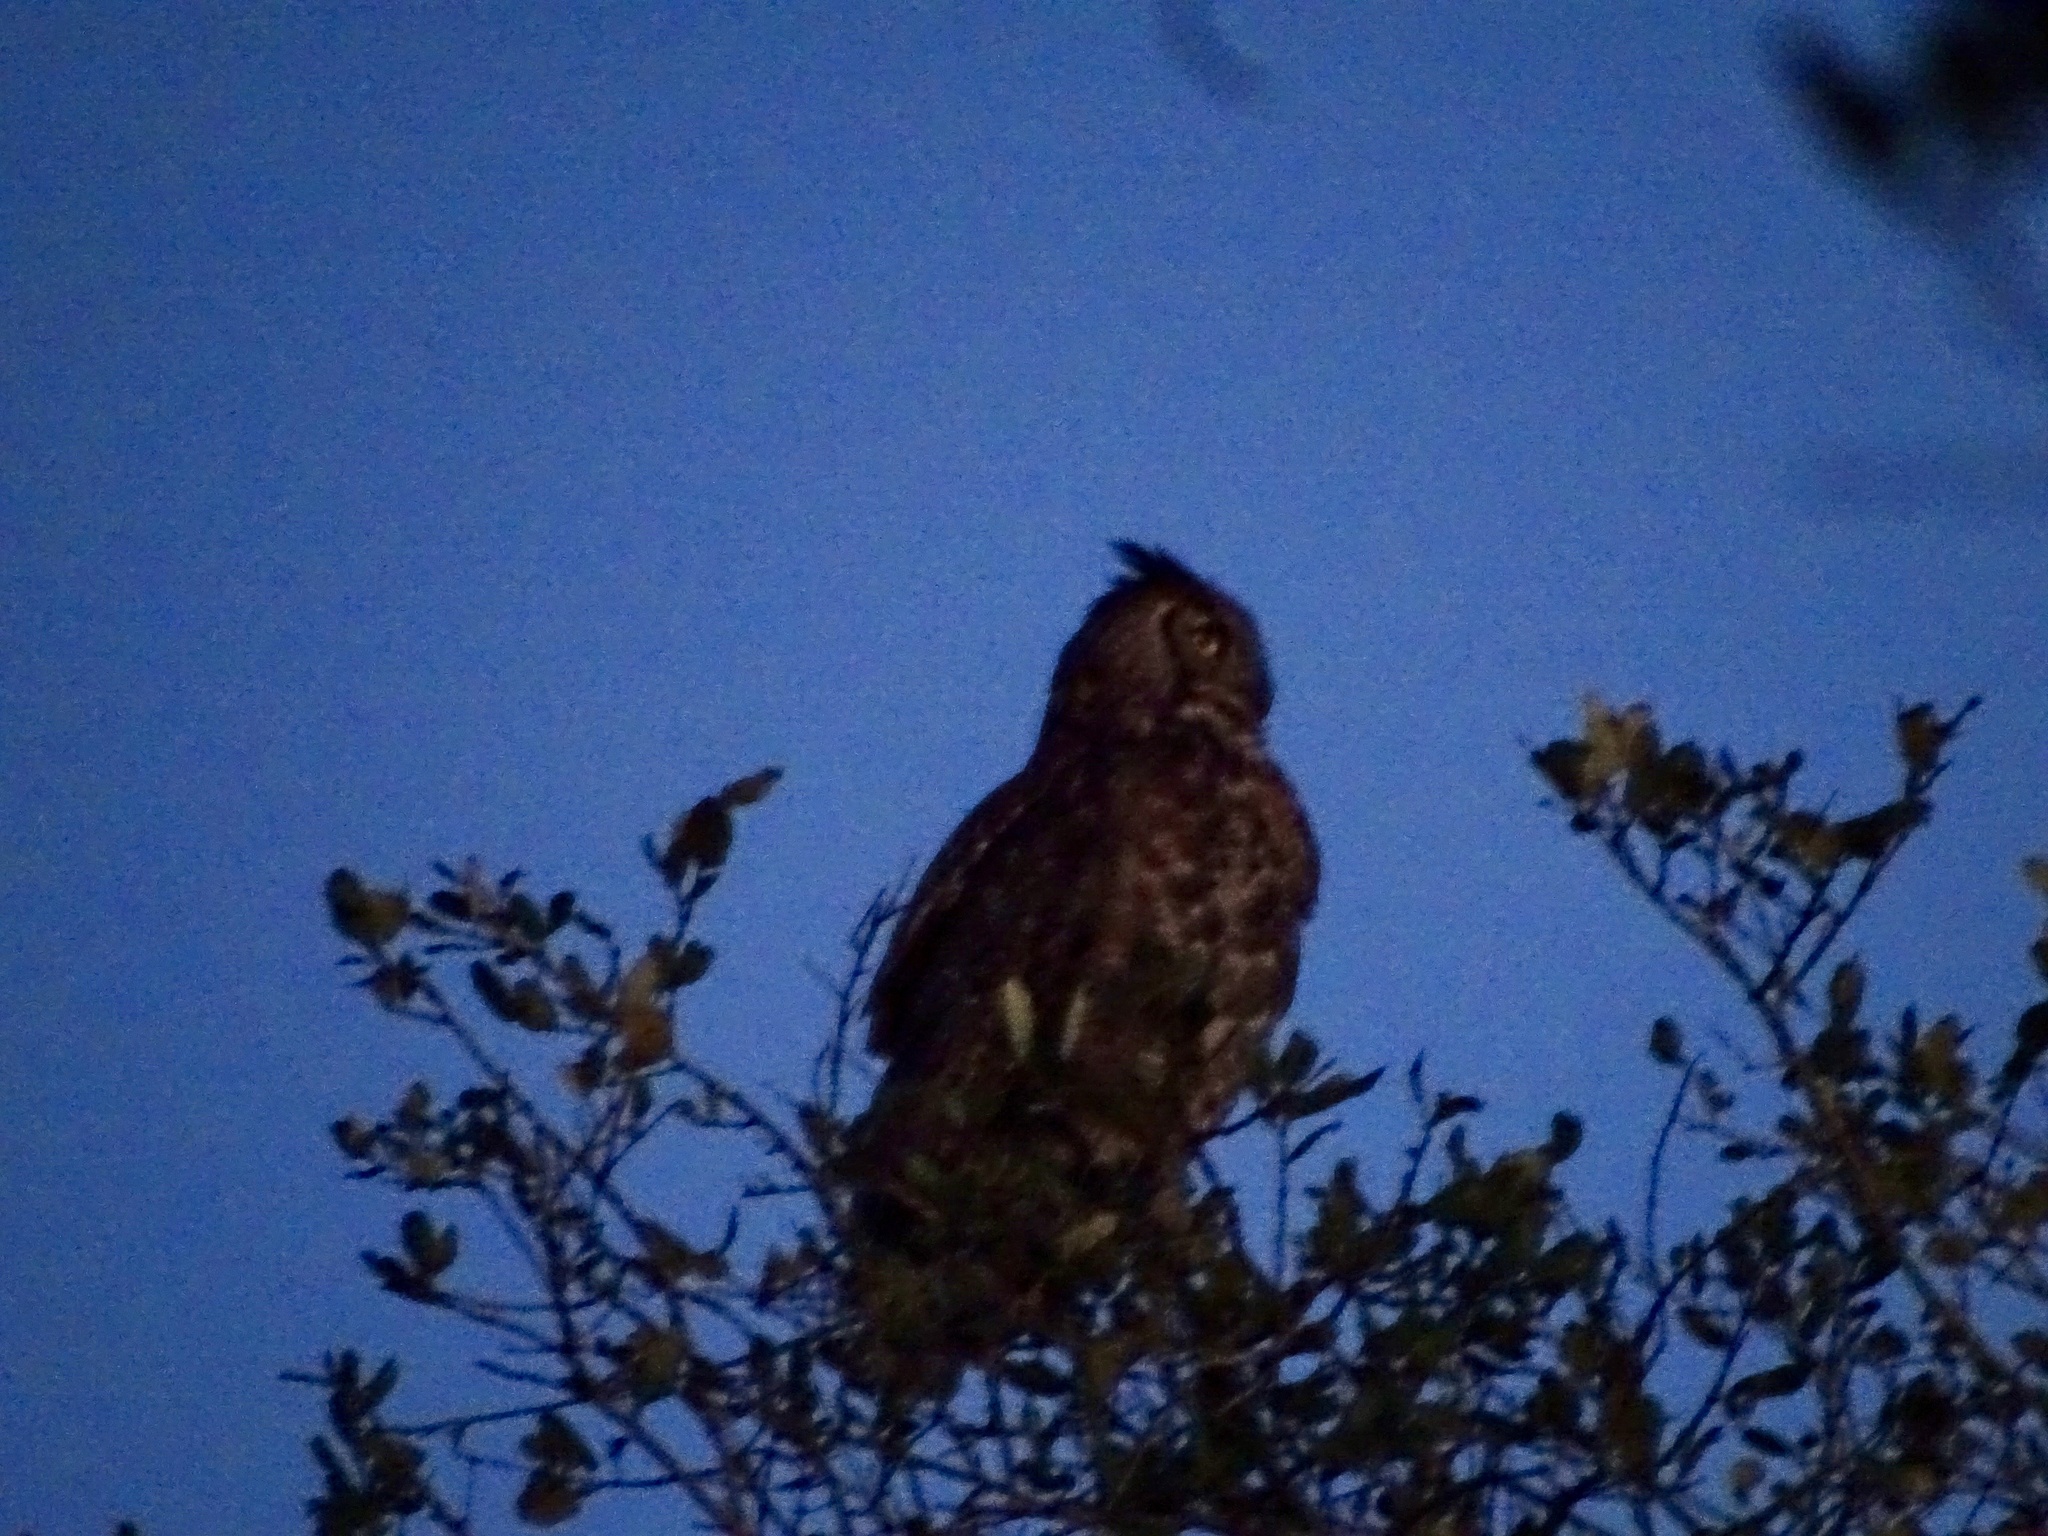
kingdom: Animalia
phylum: Chordata
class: Aves
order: Strigiformes
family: Strigidae
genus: Bubo
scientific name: Bubo virginianus
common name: Great horned owl
